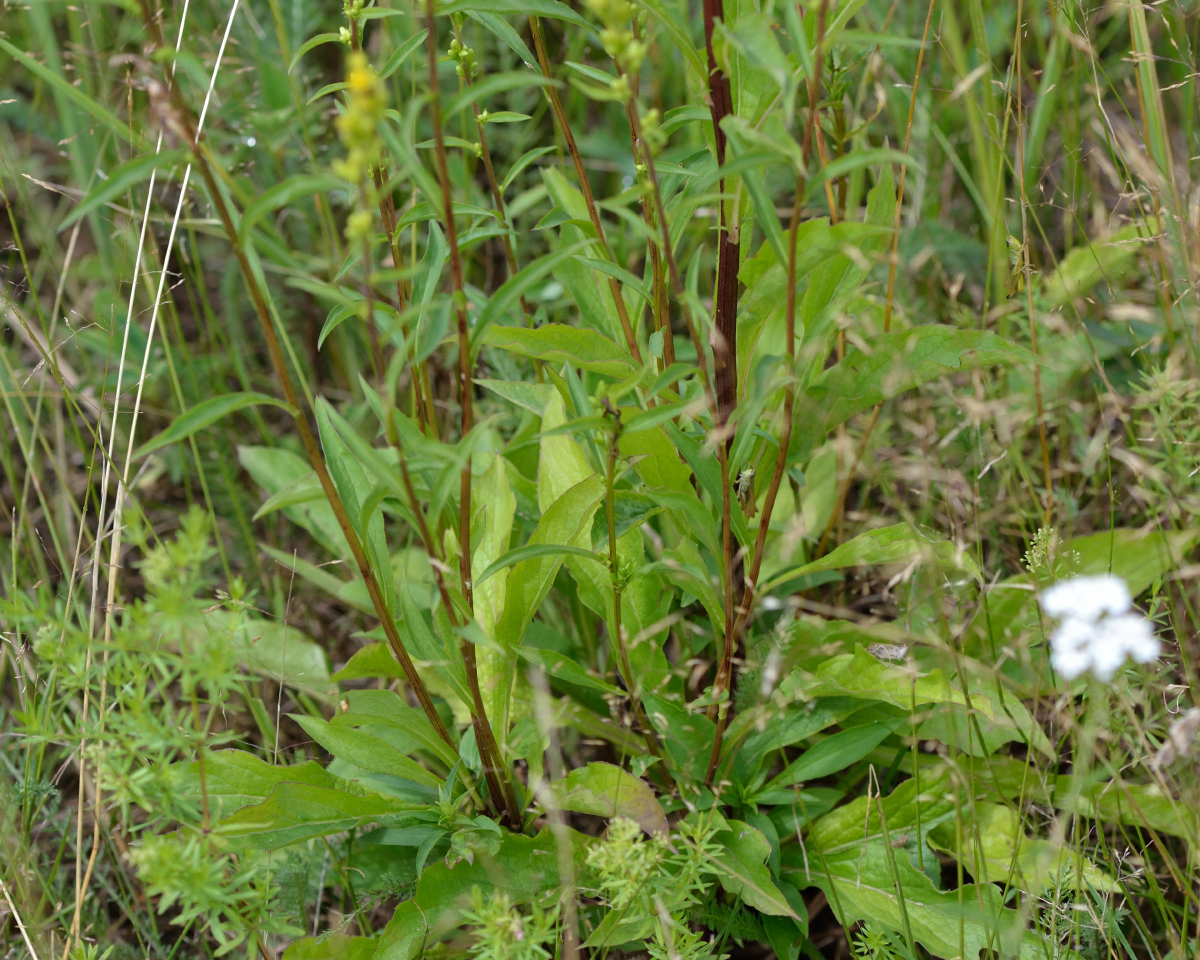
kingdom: Plantae
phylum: Tracheophyta
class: Magnoliopsida
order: Asterales
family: Asteraceae
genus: Solidago
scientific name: Solidago virgaurea
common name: Goldenrod
